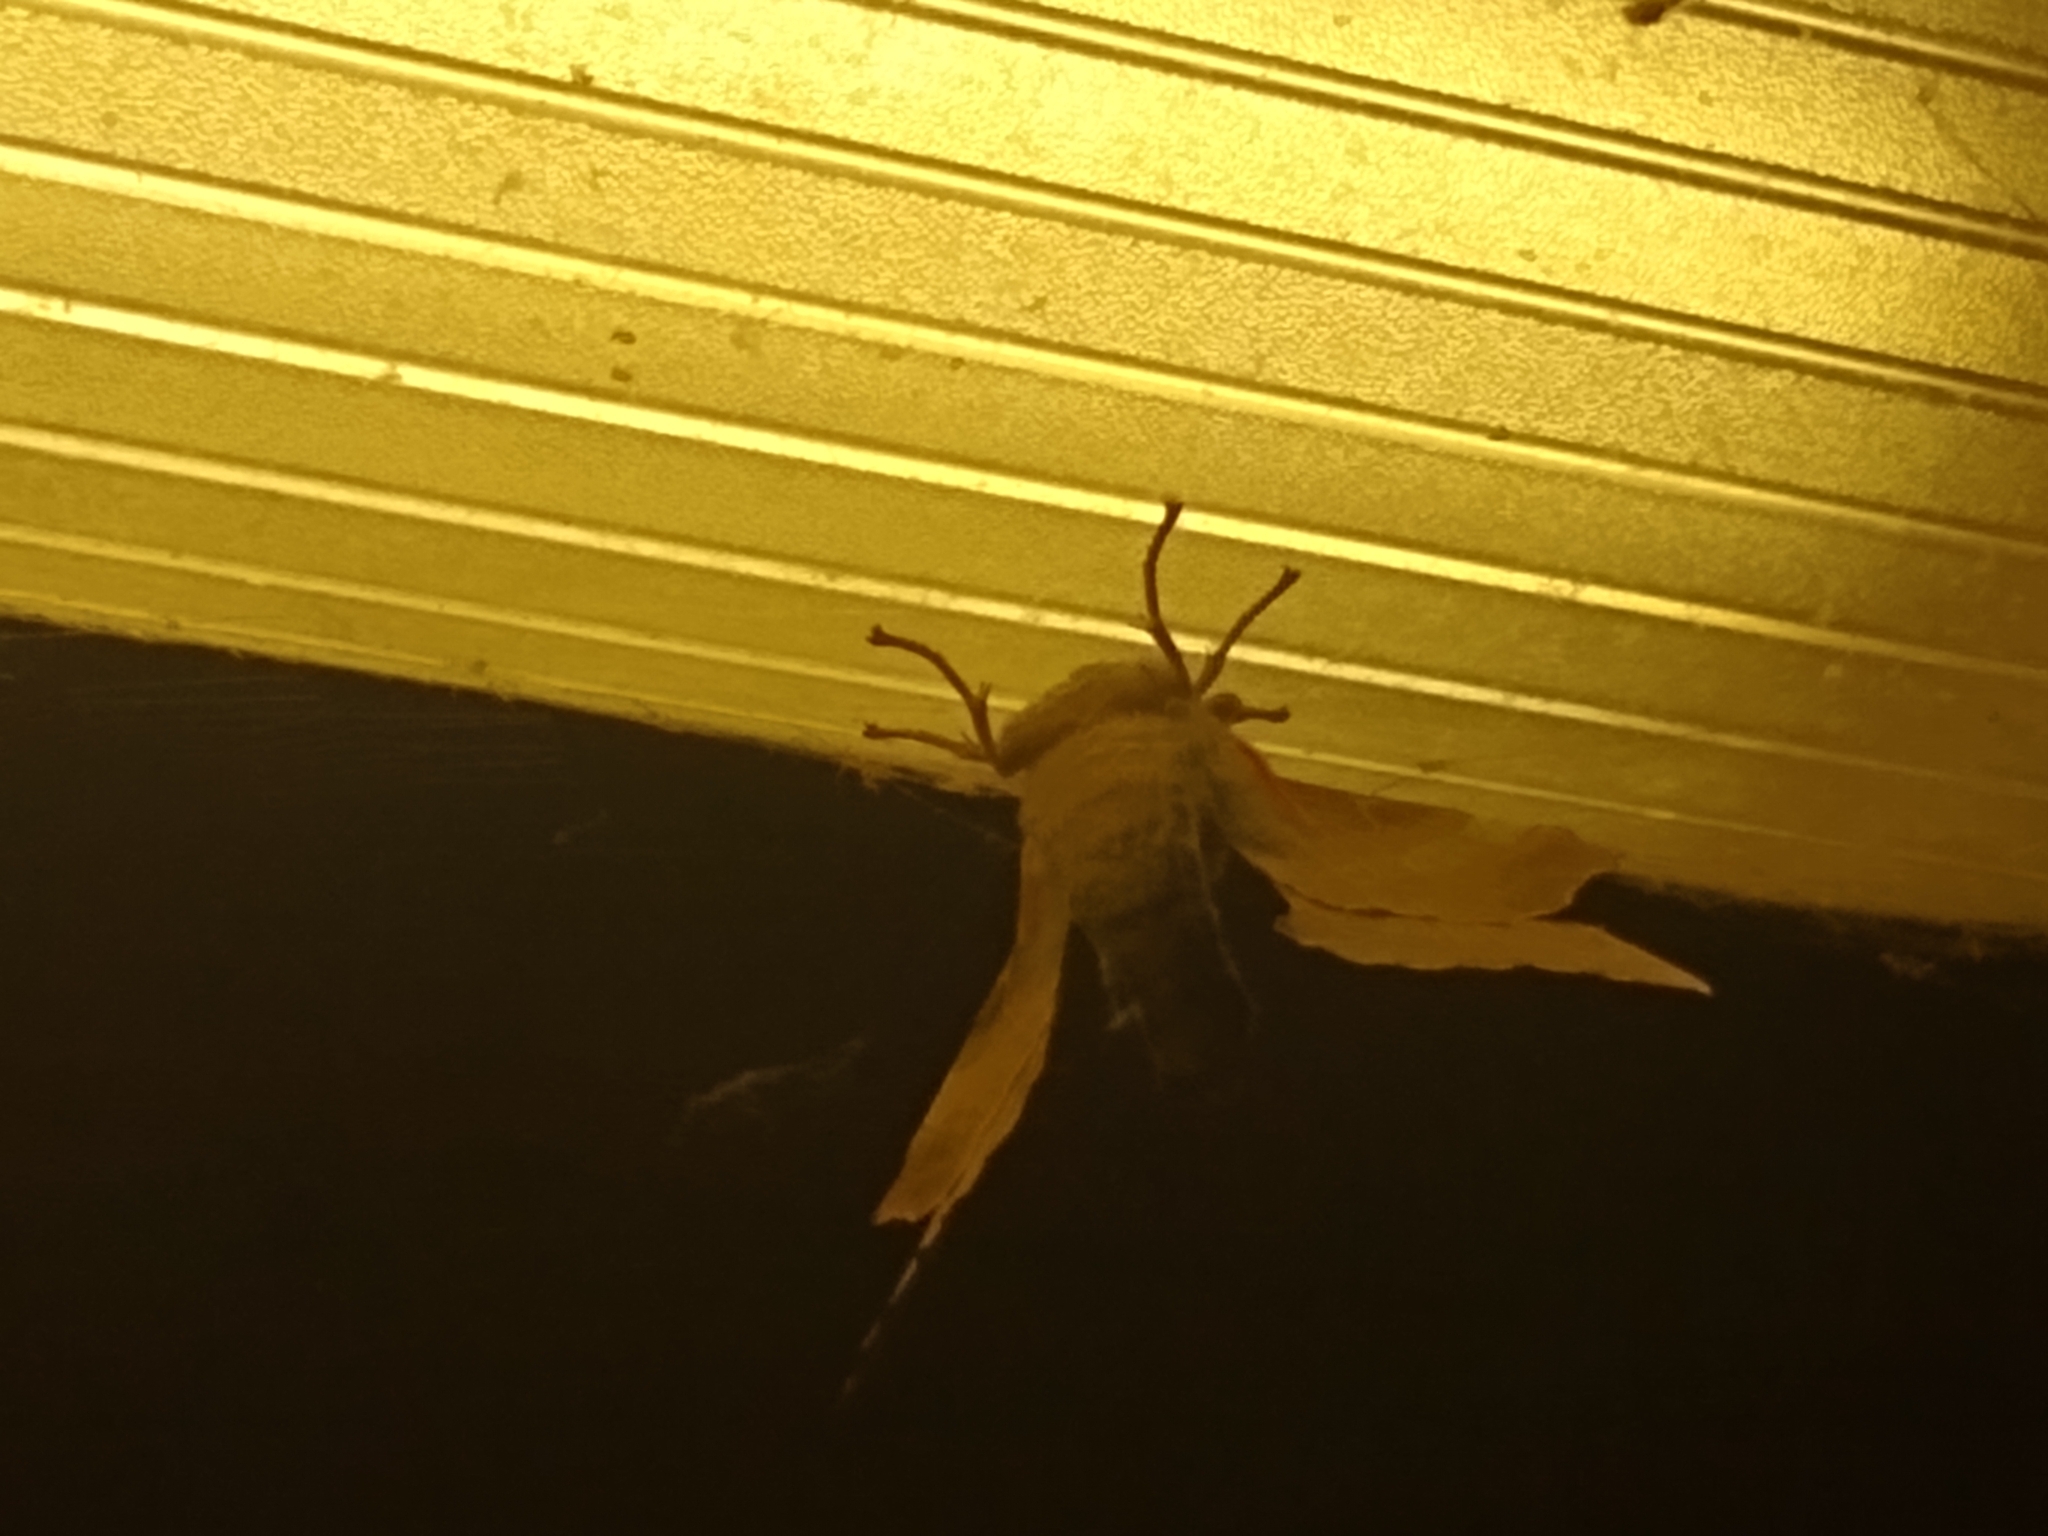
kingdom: Animalia
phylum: Arthropoda
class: Insecta
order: Lepidoptera
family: Sphingidae
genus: Laothoe
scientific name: Laothoe populi
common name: Poplar hawk-moth
